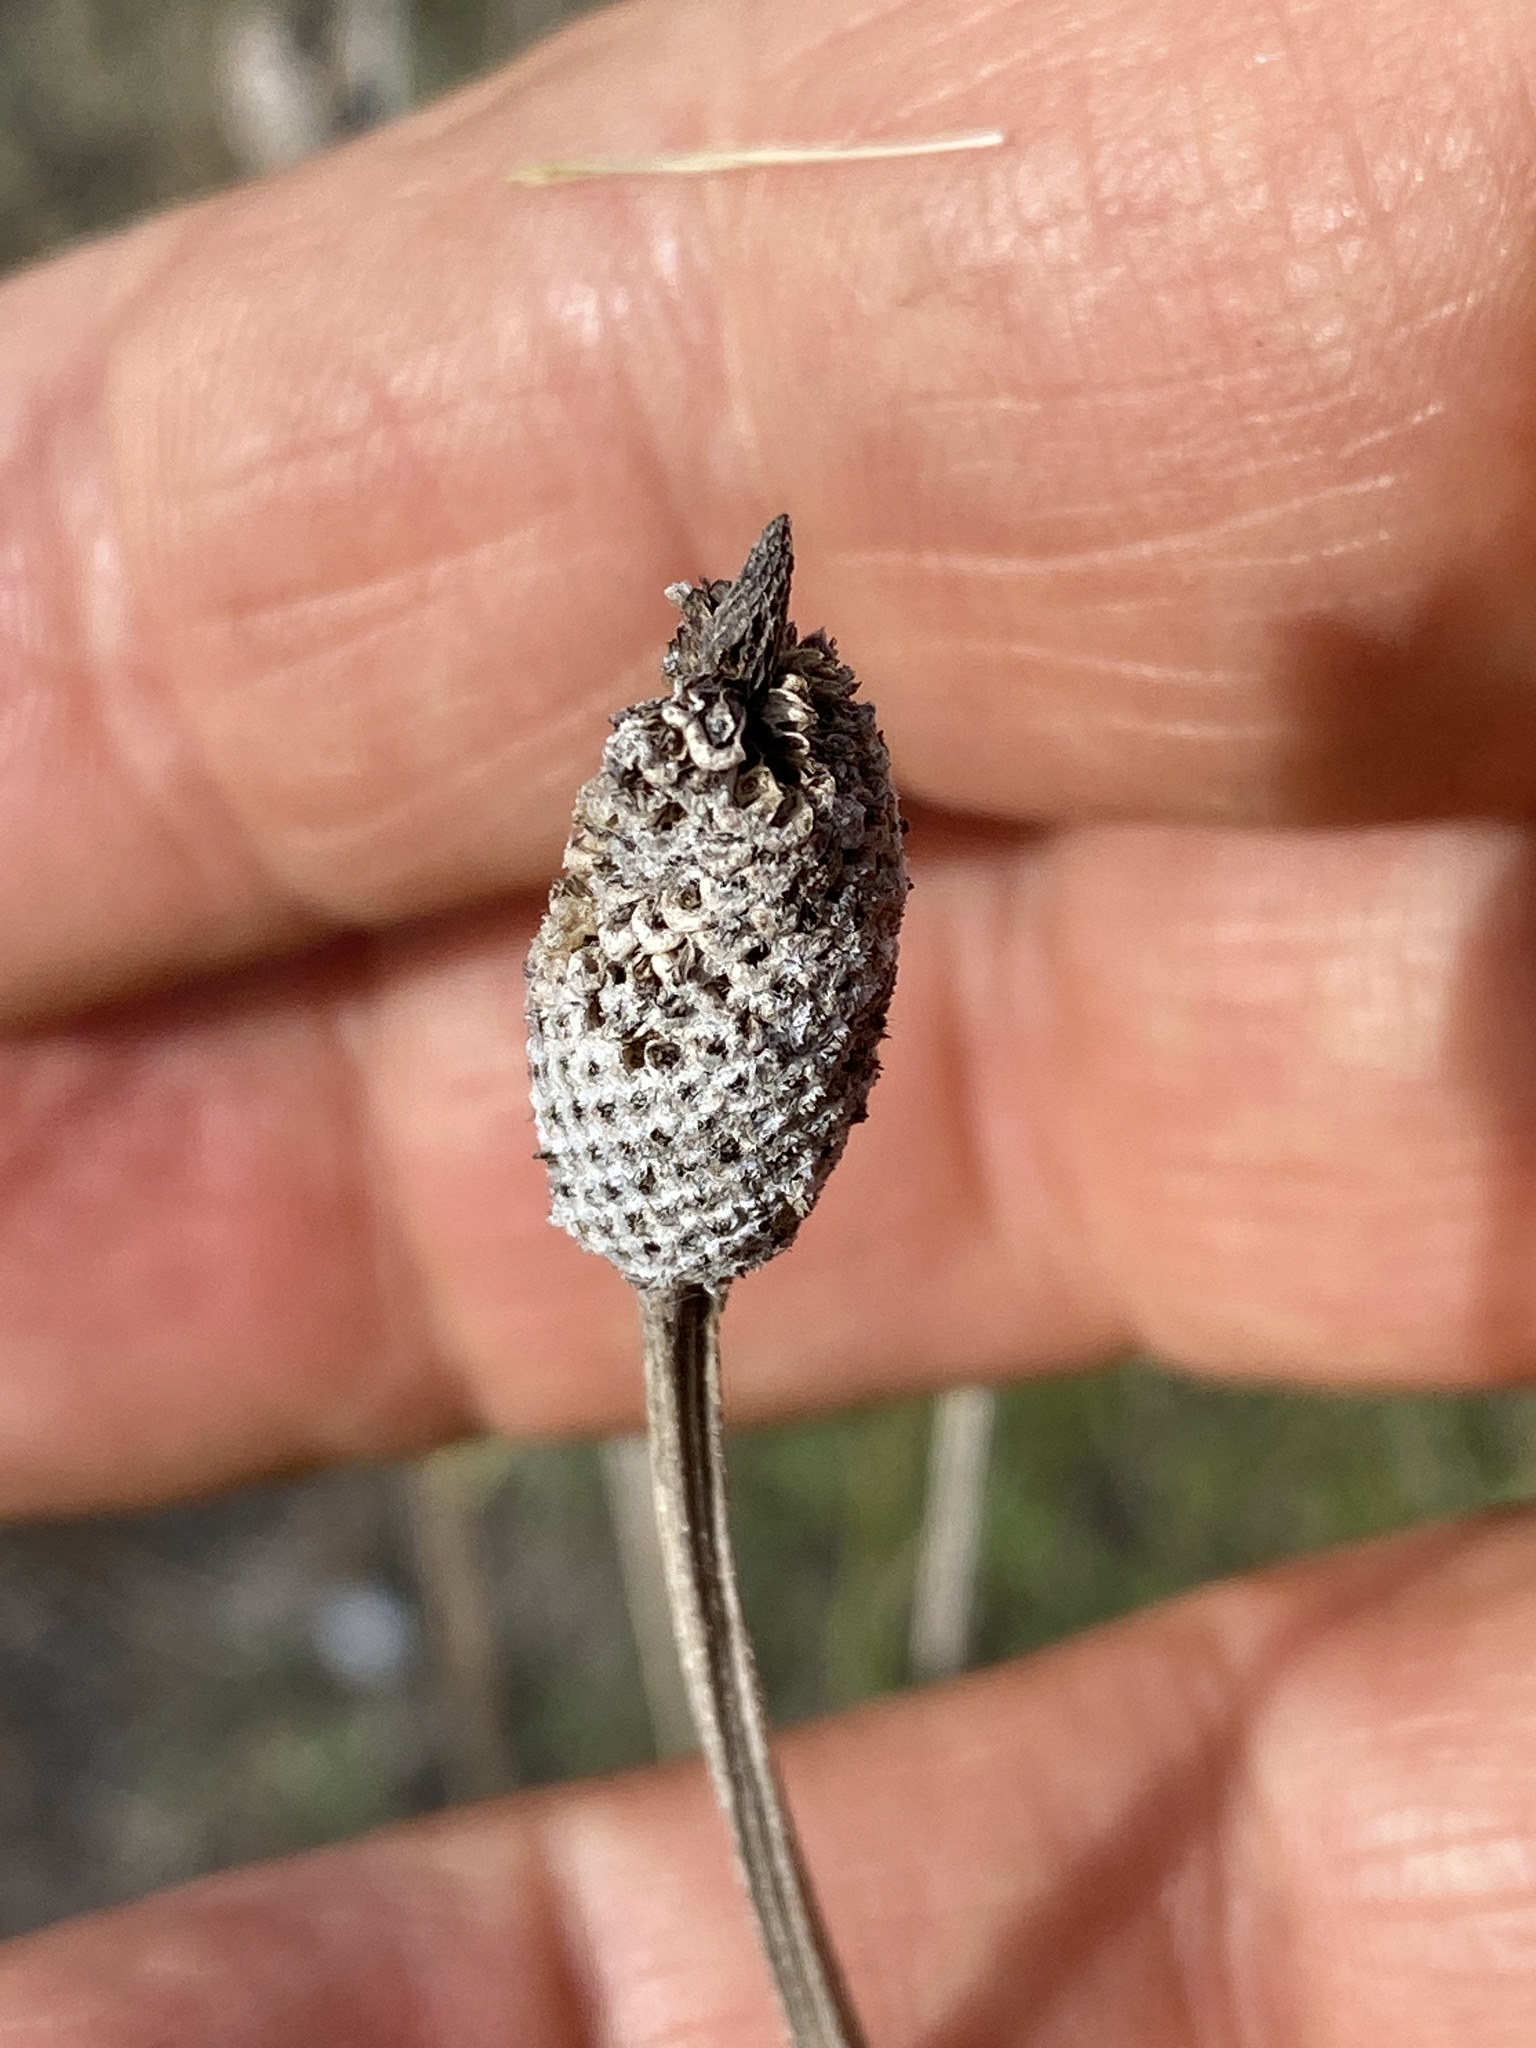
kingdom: Plantae
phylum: Tracheophyta
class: Magnoliopsida
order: Asterales
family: Asteraceae
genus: Ratibida
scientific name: Ratibida columnifera
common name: Prairie coneflower
